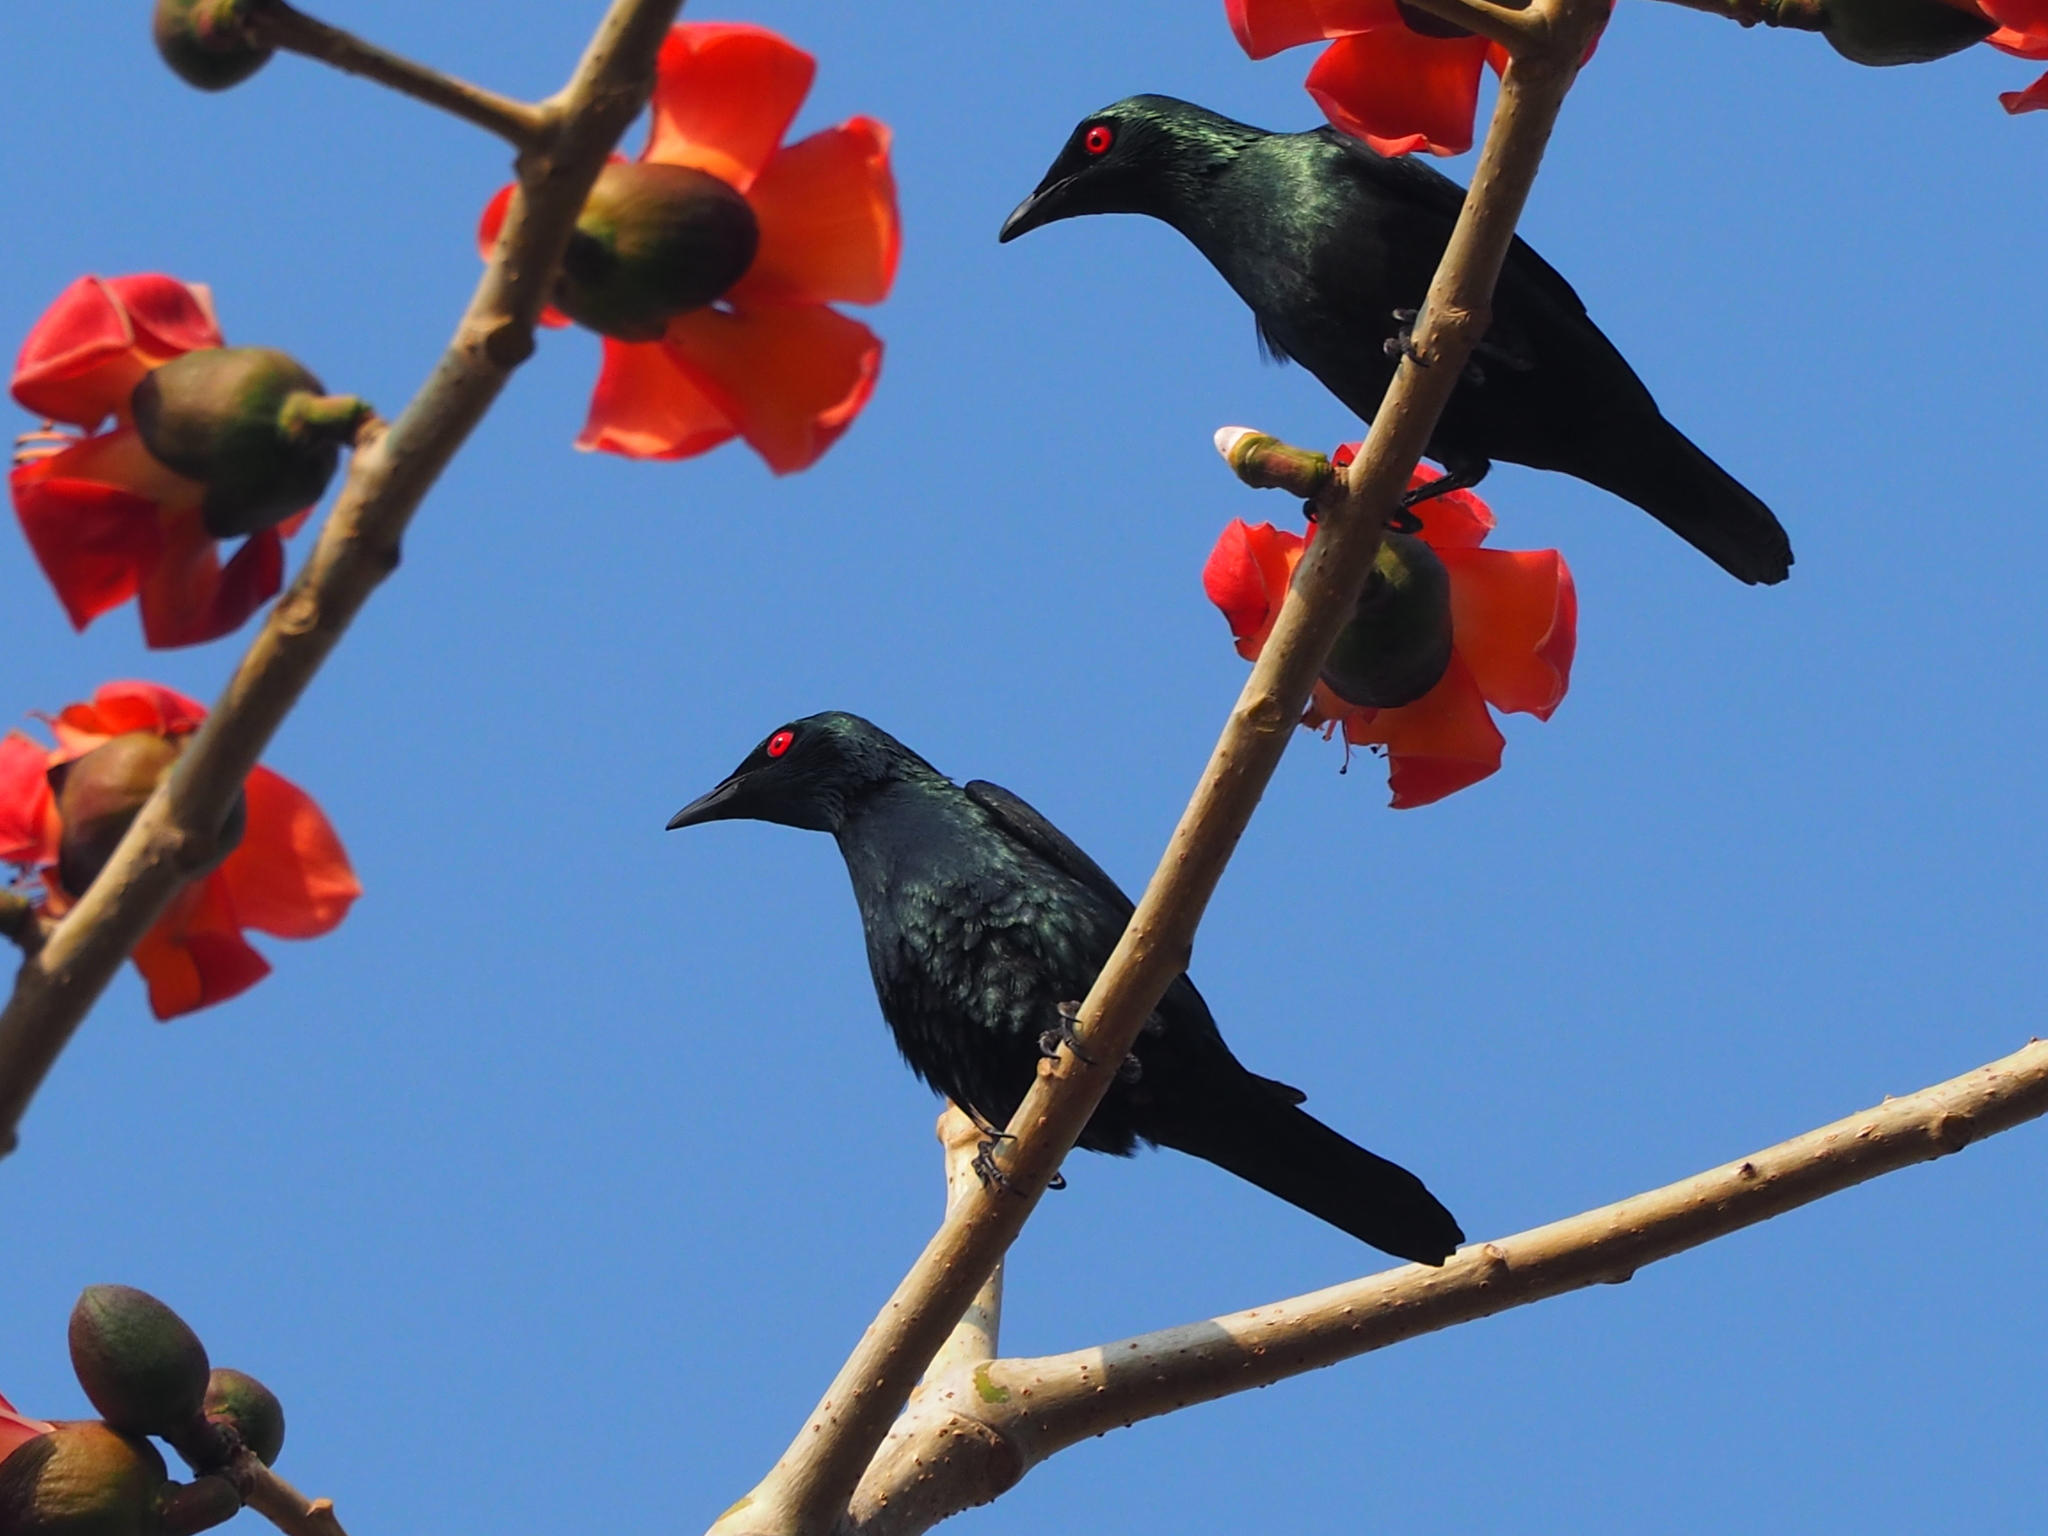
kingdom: Animalia
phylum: Chordata
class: Aves
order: Passeriformes
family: Sturnidae
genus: Aplonis
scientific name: Aplonis panayensis
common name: Asian glossy starling
